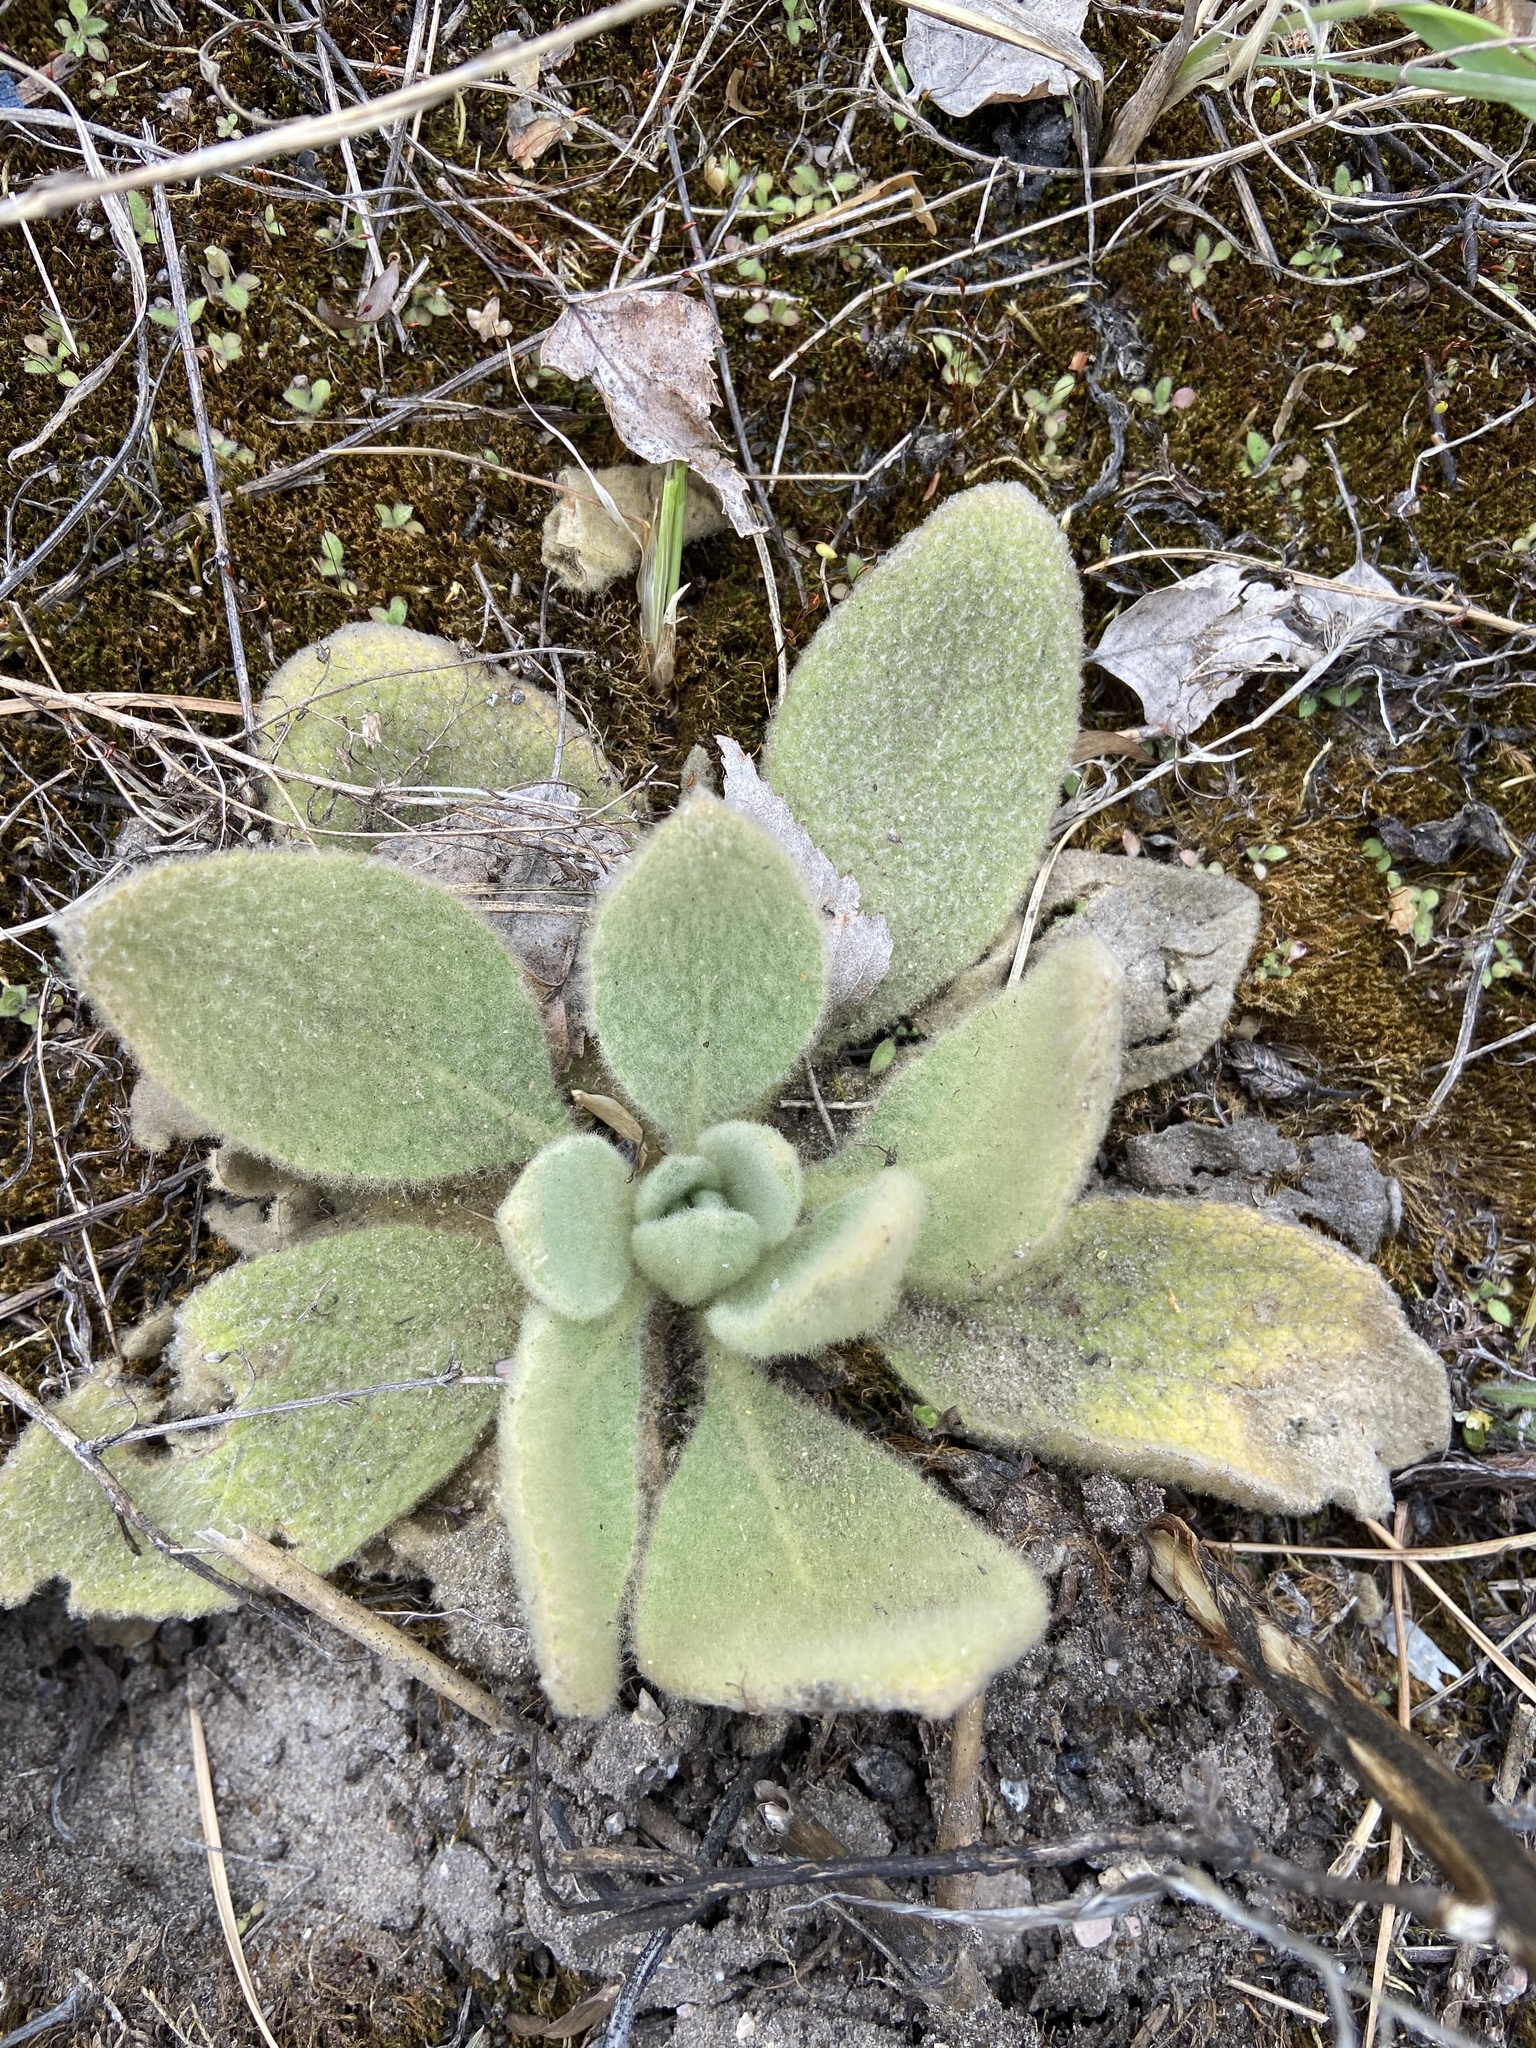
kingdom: Plantae
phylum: Tracheophyta
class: Magnoliopsida
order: Lamiales
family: Scrophulariaceae
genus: Verbascum
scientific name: Verbascum thapsus
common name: Common mullein
